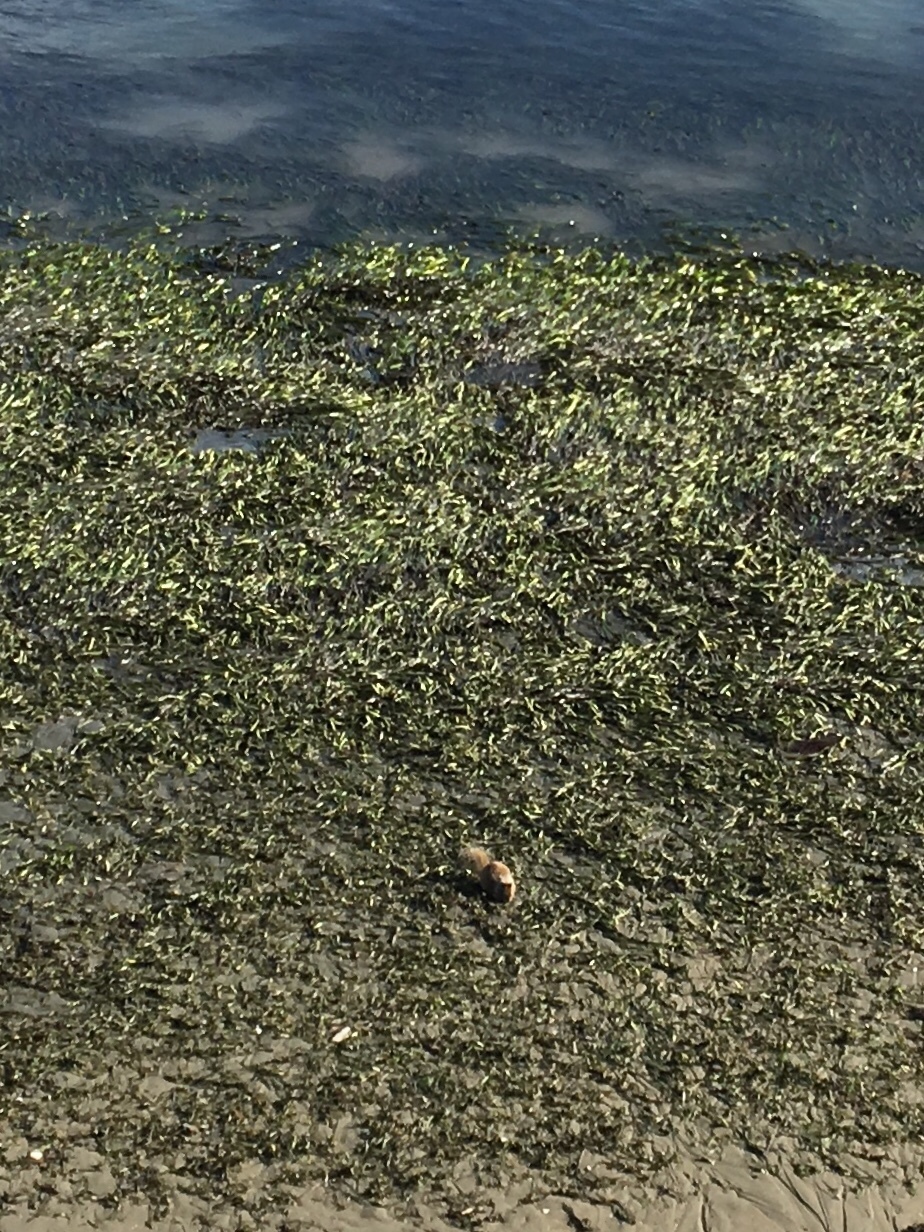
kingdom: Animalia
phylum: Chordata
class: Mammalia
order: Rodentia
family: Sciuridae
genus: Otospermophilus
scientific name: Otospermophilus beecheyi
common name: California ground squirrel
